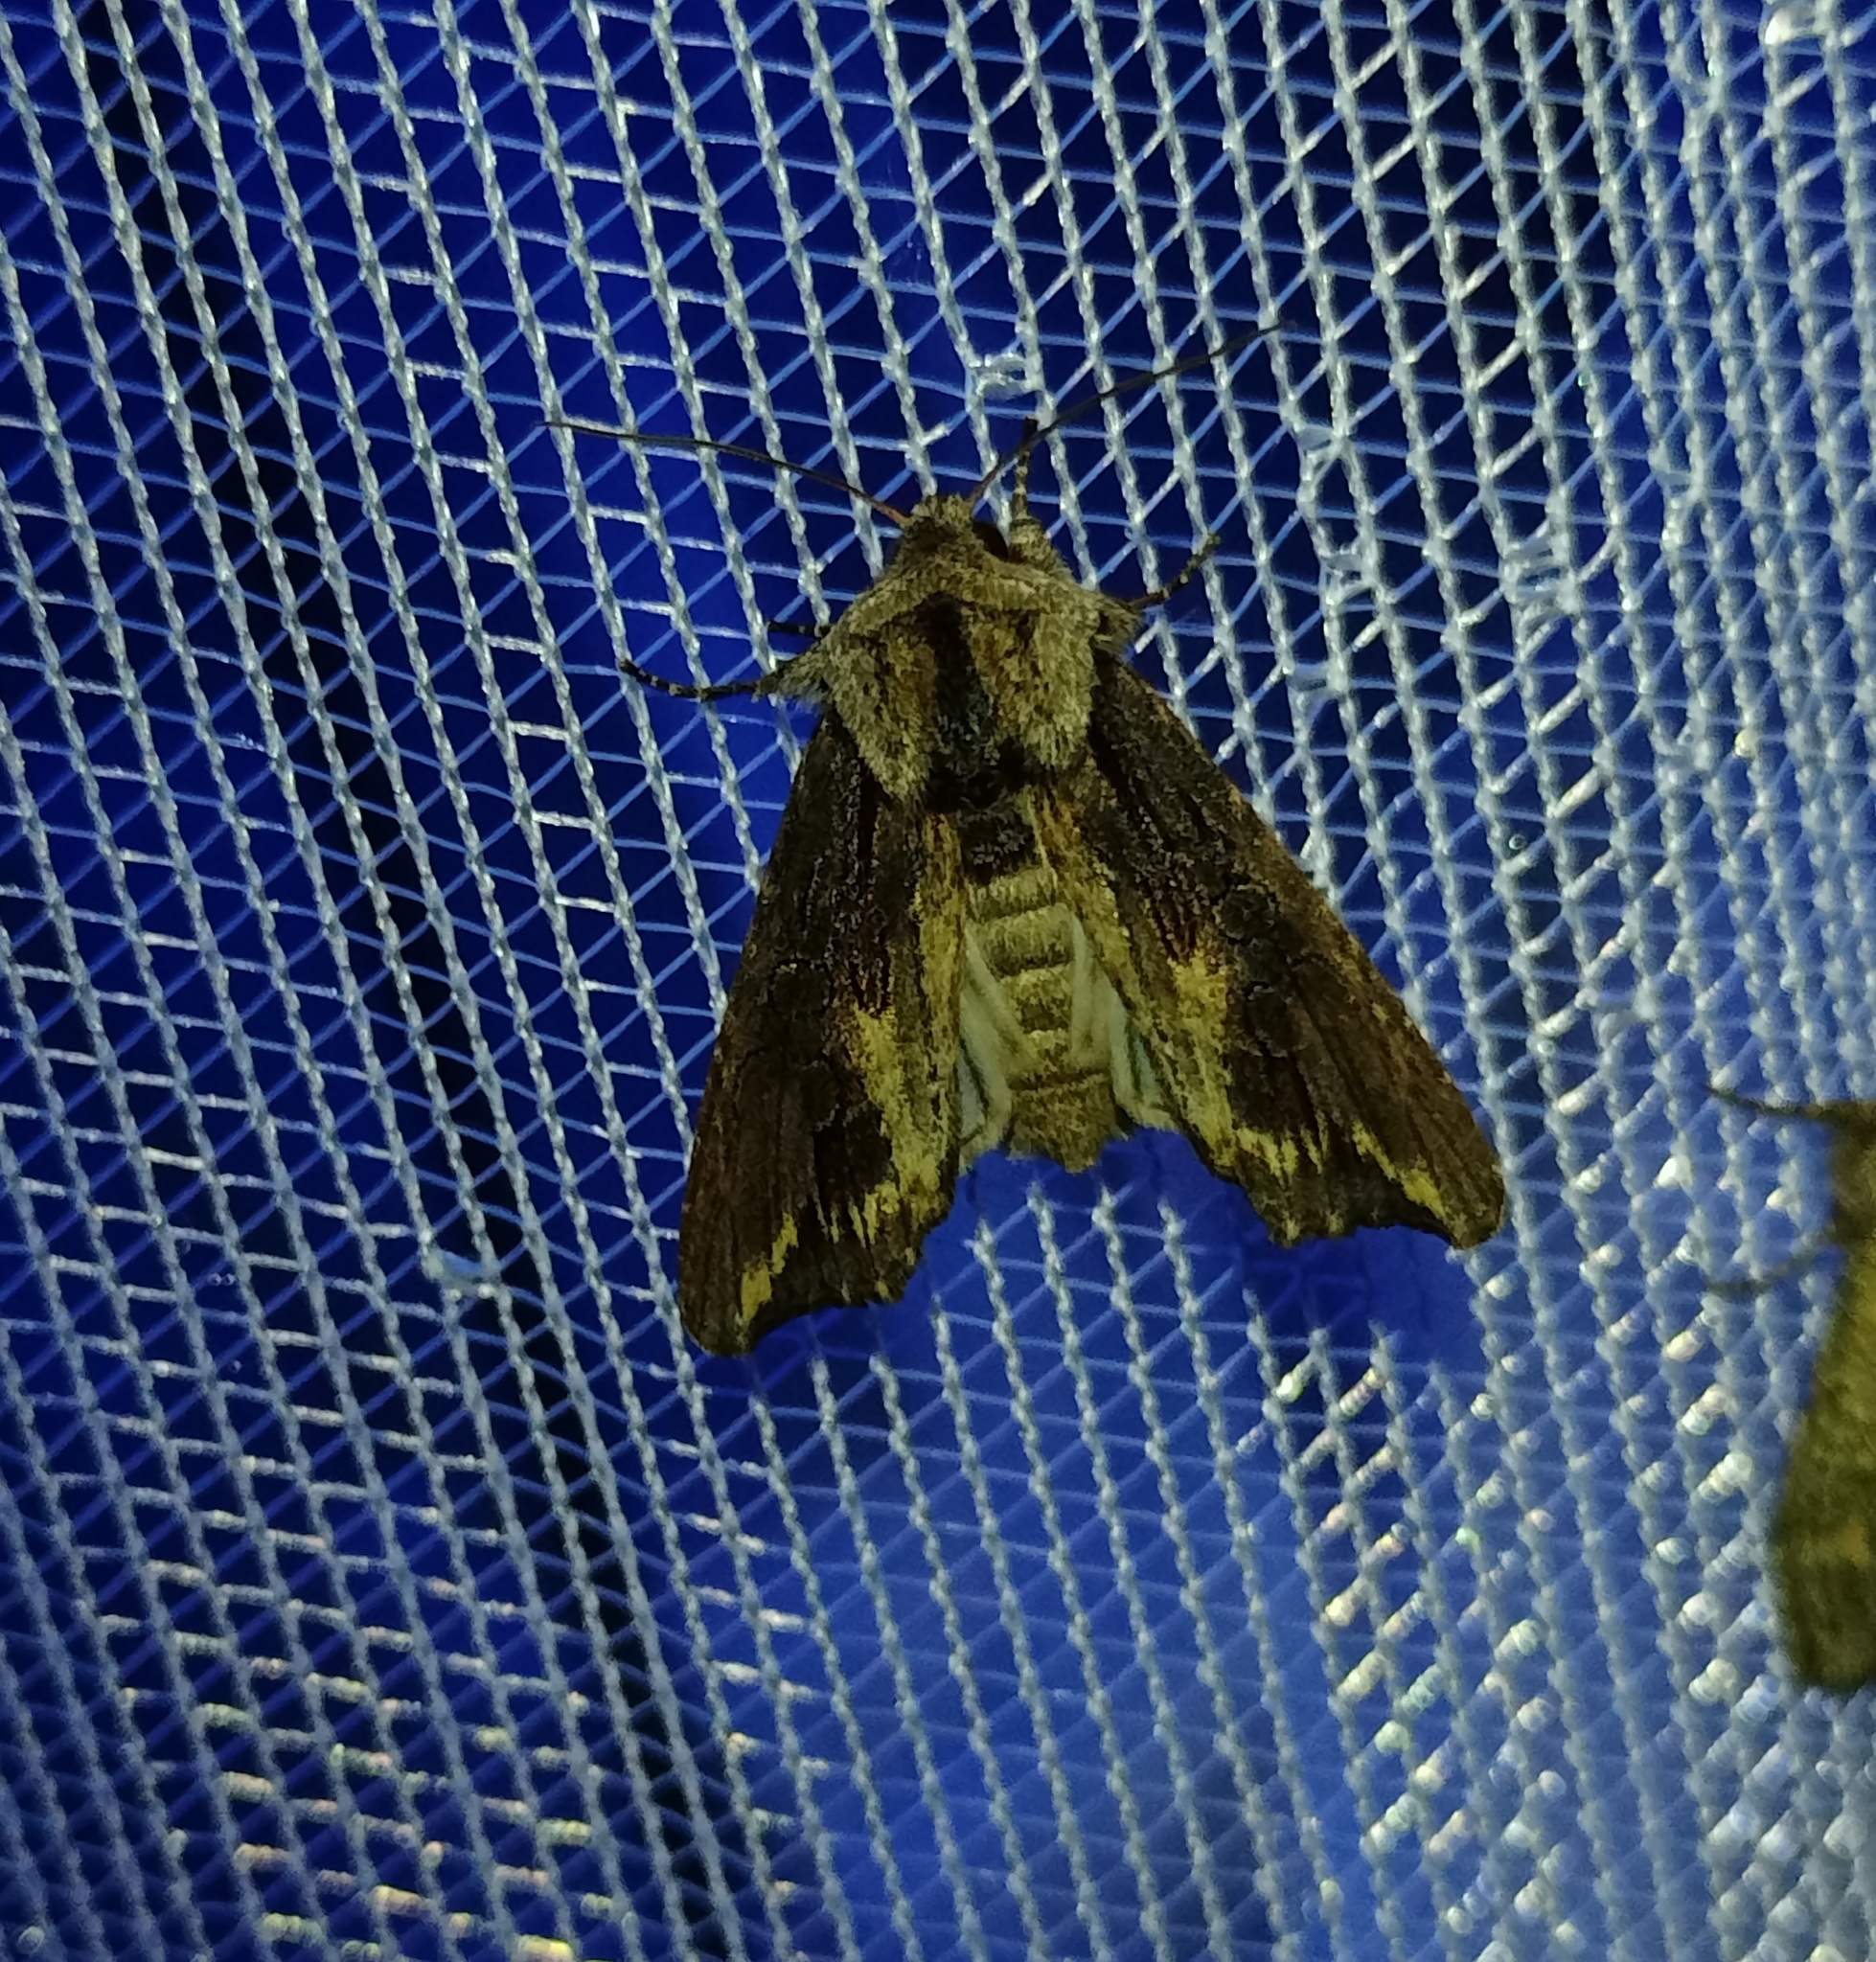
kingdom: Animalia
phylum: Arthropoda
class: Insecta
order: Lepidoptera
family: Noctuidae
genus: Egira
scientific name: Egira conspicillaris
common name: Silver cloud
